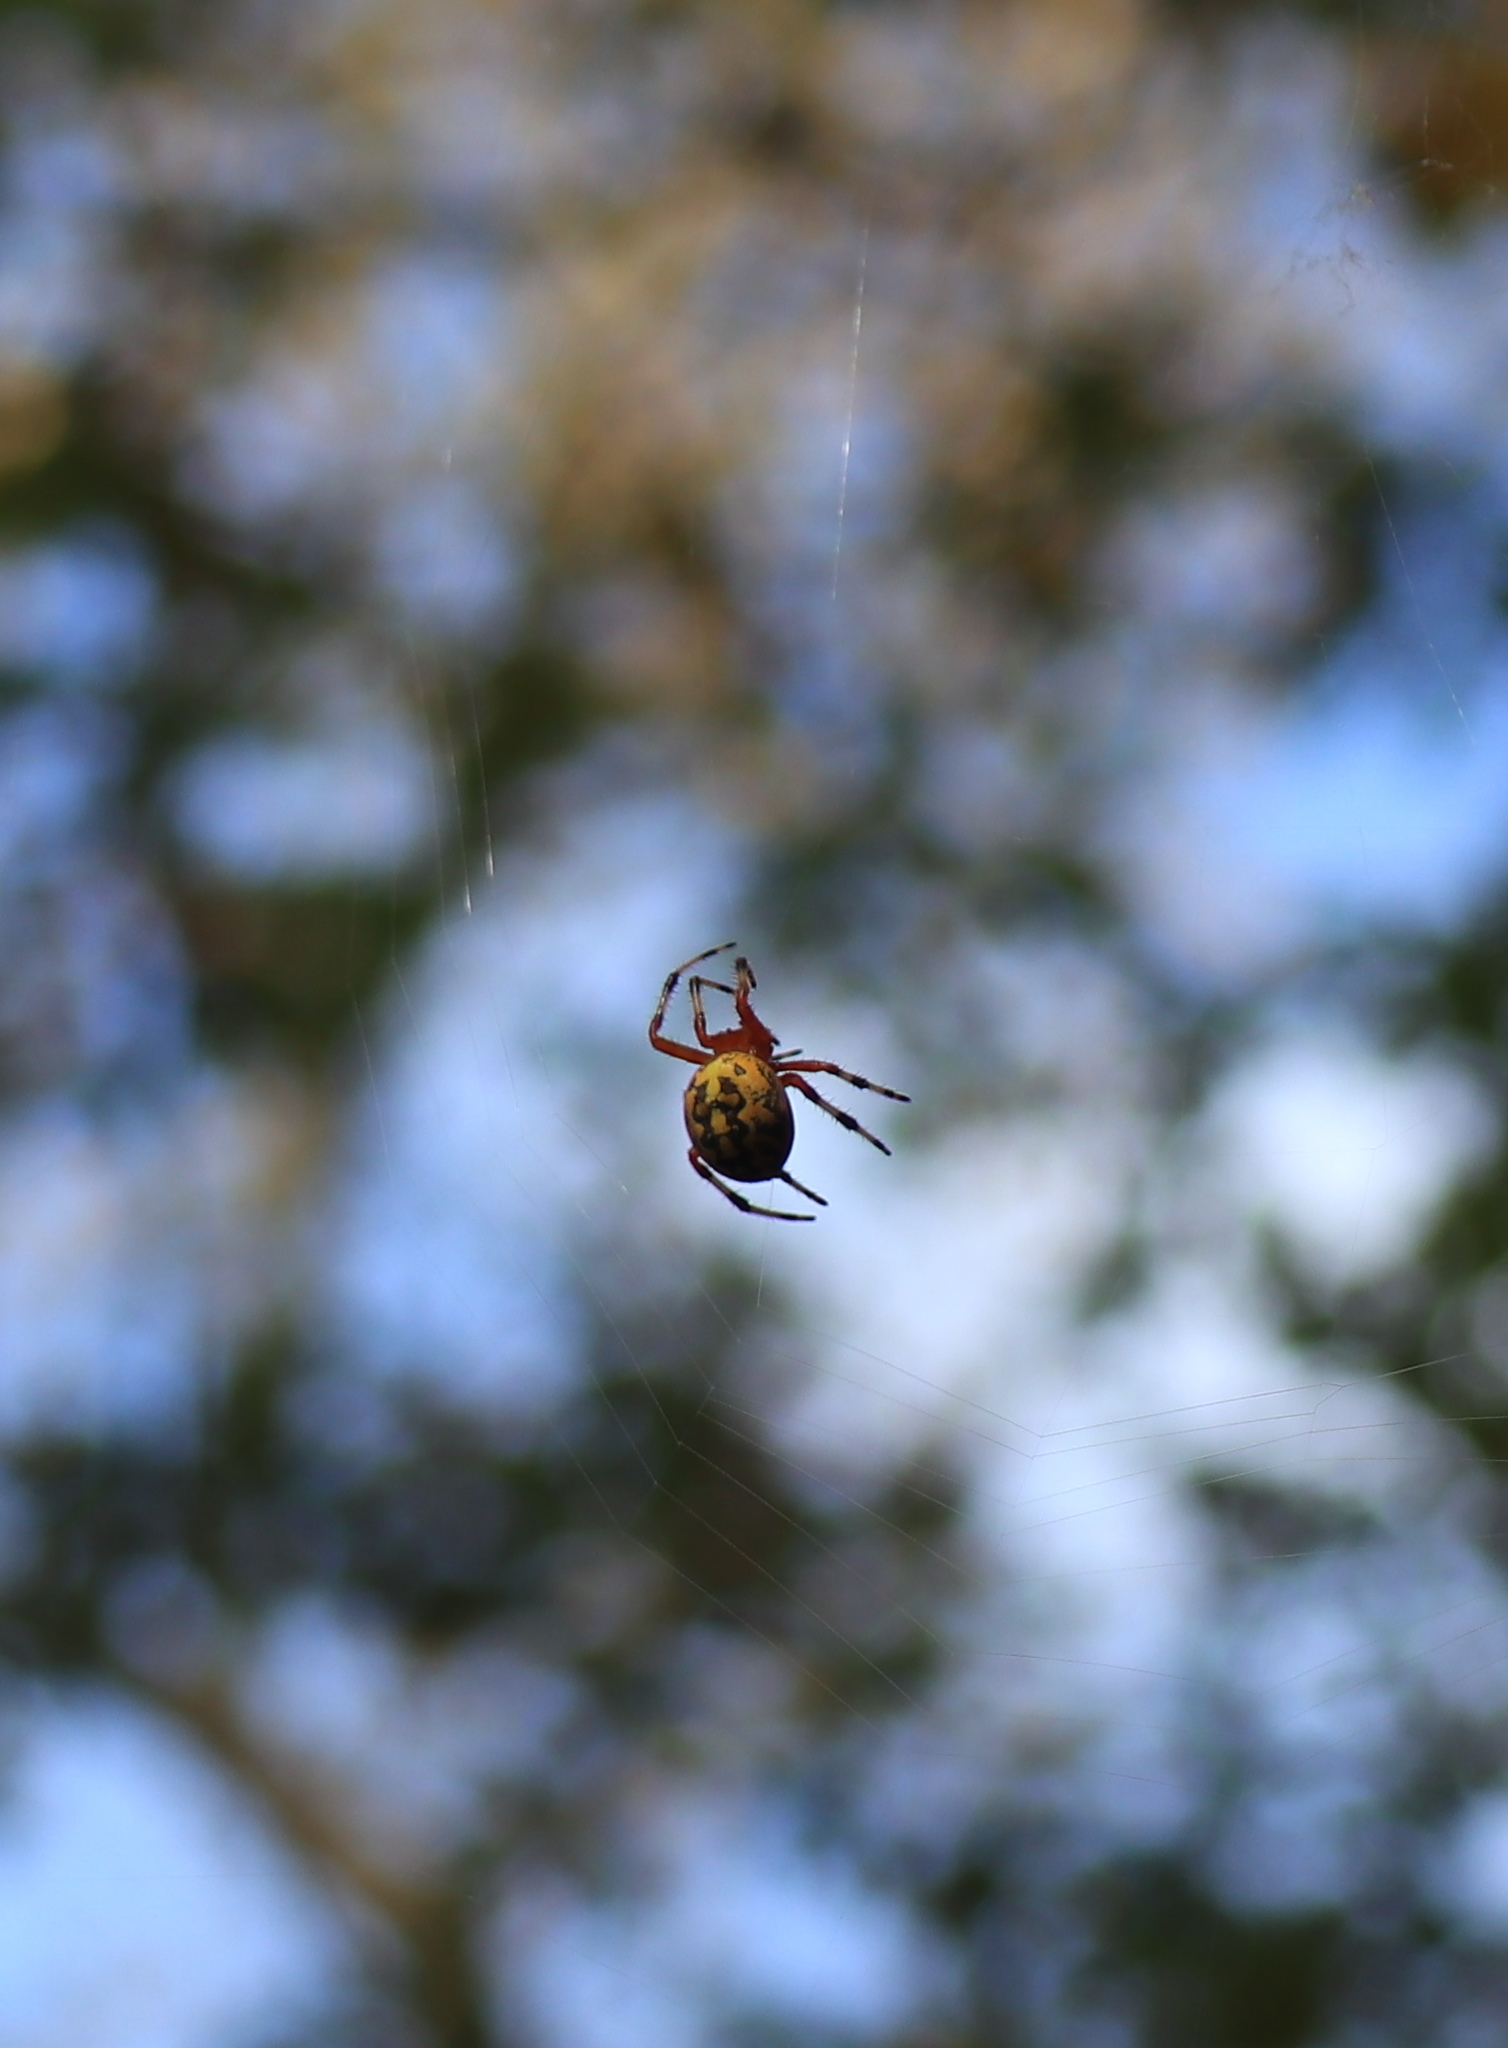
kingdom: Animalia
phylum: Arthropoda
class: Arachnida
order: Araneae
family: Araneidae
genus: Araneus
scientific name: Araneus marmoreus
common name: Marbled orbweaver
